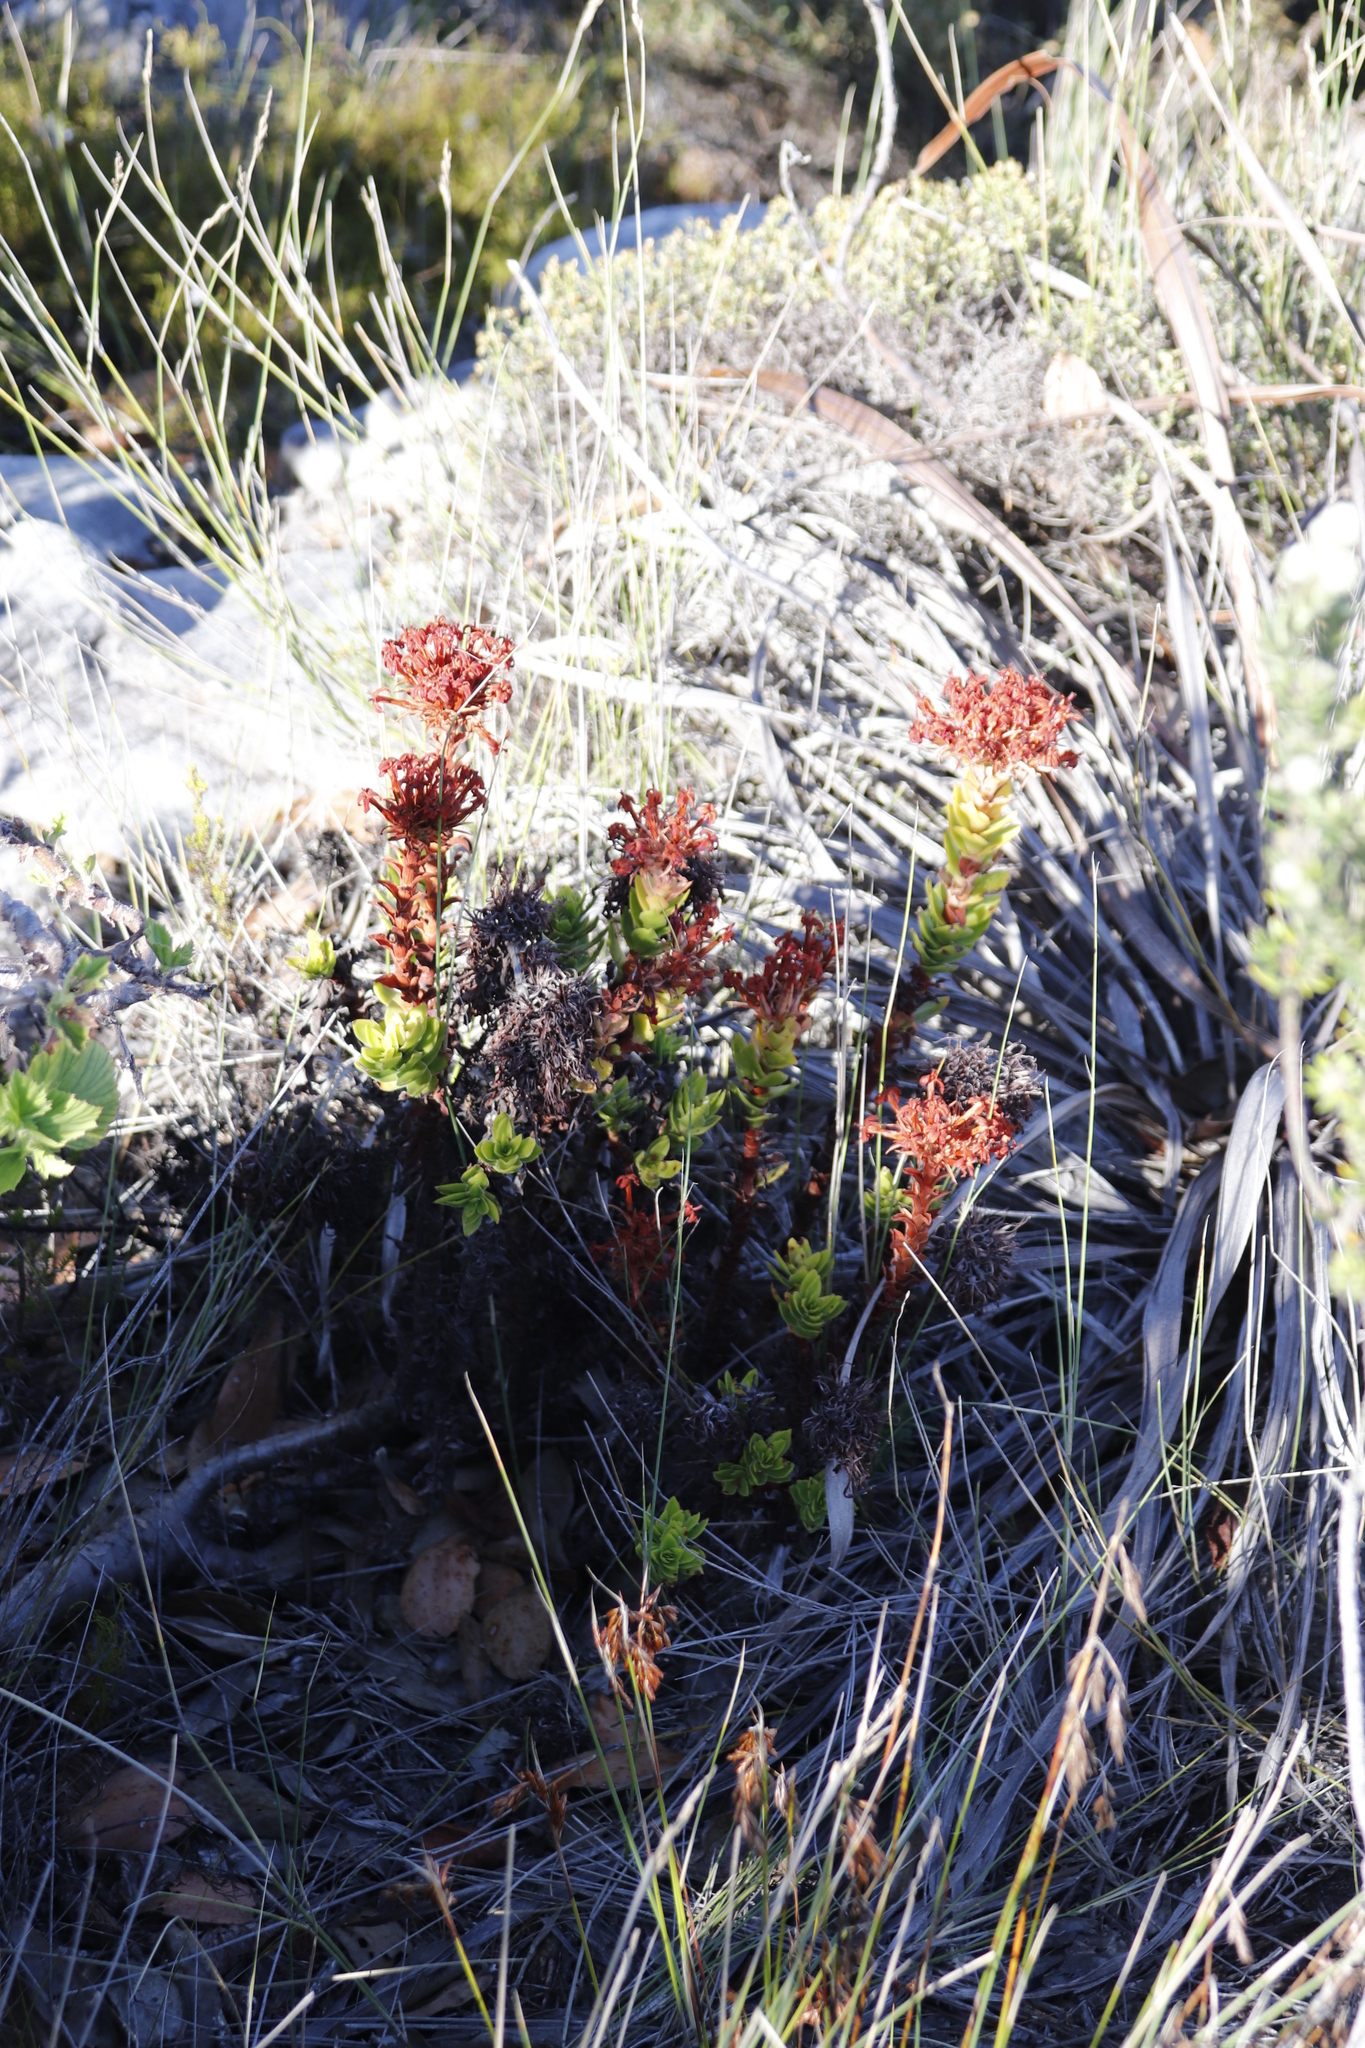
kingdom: Plantae
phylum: Tracheophyta
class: Magnoliopsida
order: Saxifragales
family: Crassulaceae
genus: Crassula
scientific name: Crassula coccinea
